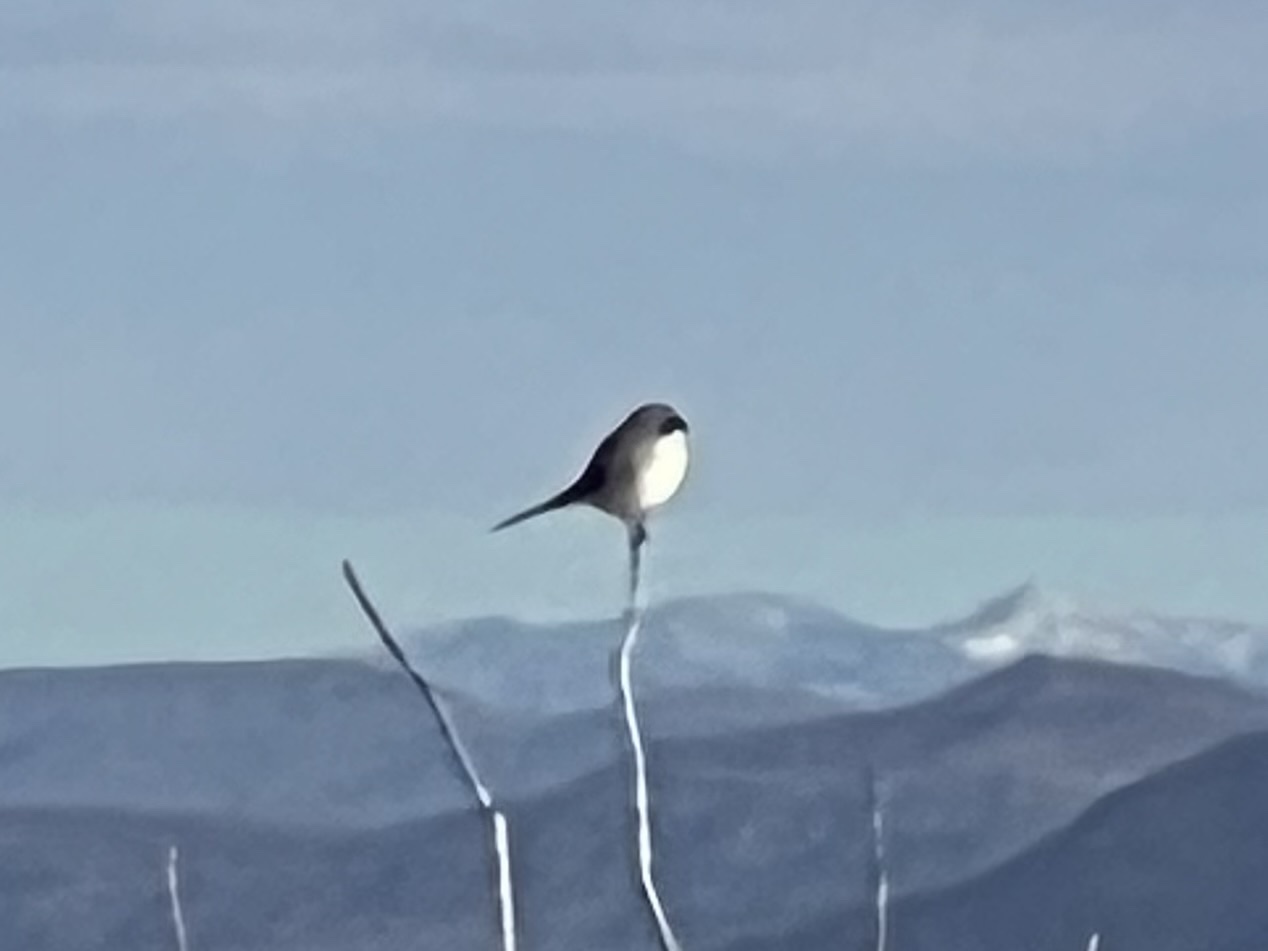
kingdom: Animalia
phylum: Chordata
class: Aves
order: Passeriformes
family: Laniidae
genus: Lanius
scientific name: Lanius ludovicianus
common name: Loggerhead shrike
